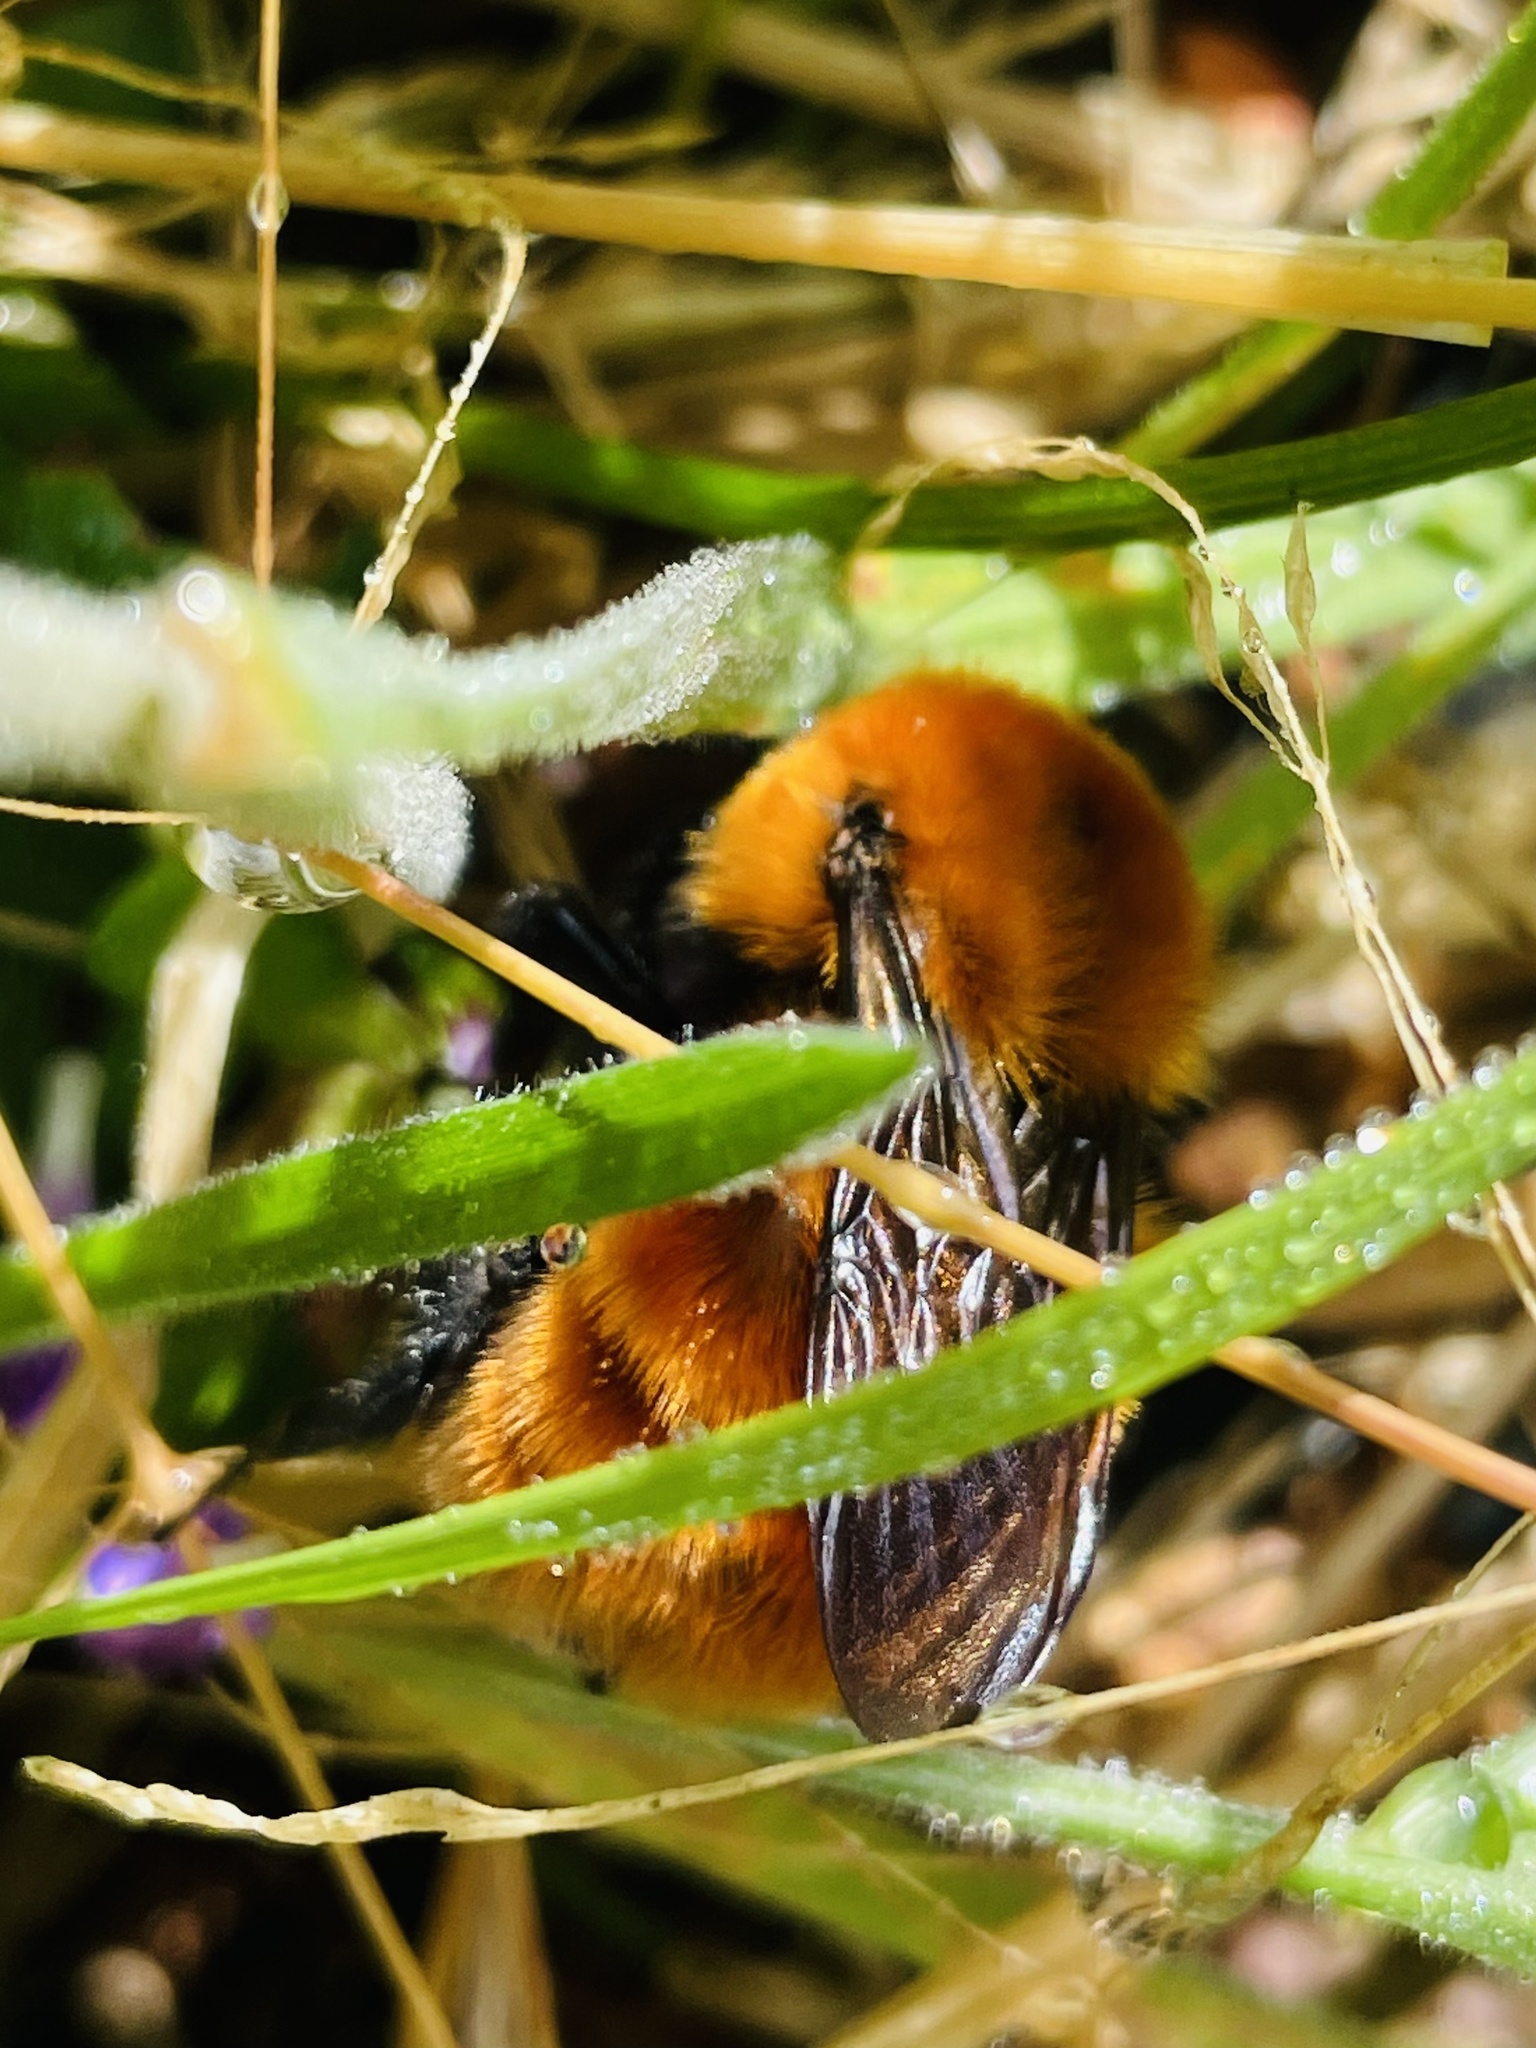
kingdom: Animalia
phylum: Arthropoda
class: Insecta
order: Hymenoptera
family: Apidae
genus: Bombus
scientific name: Bombus dahlbomii
